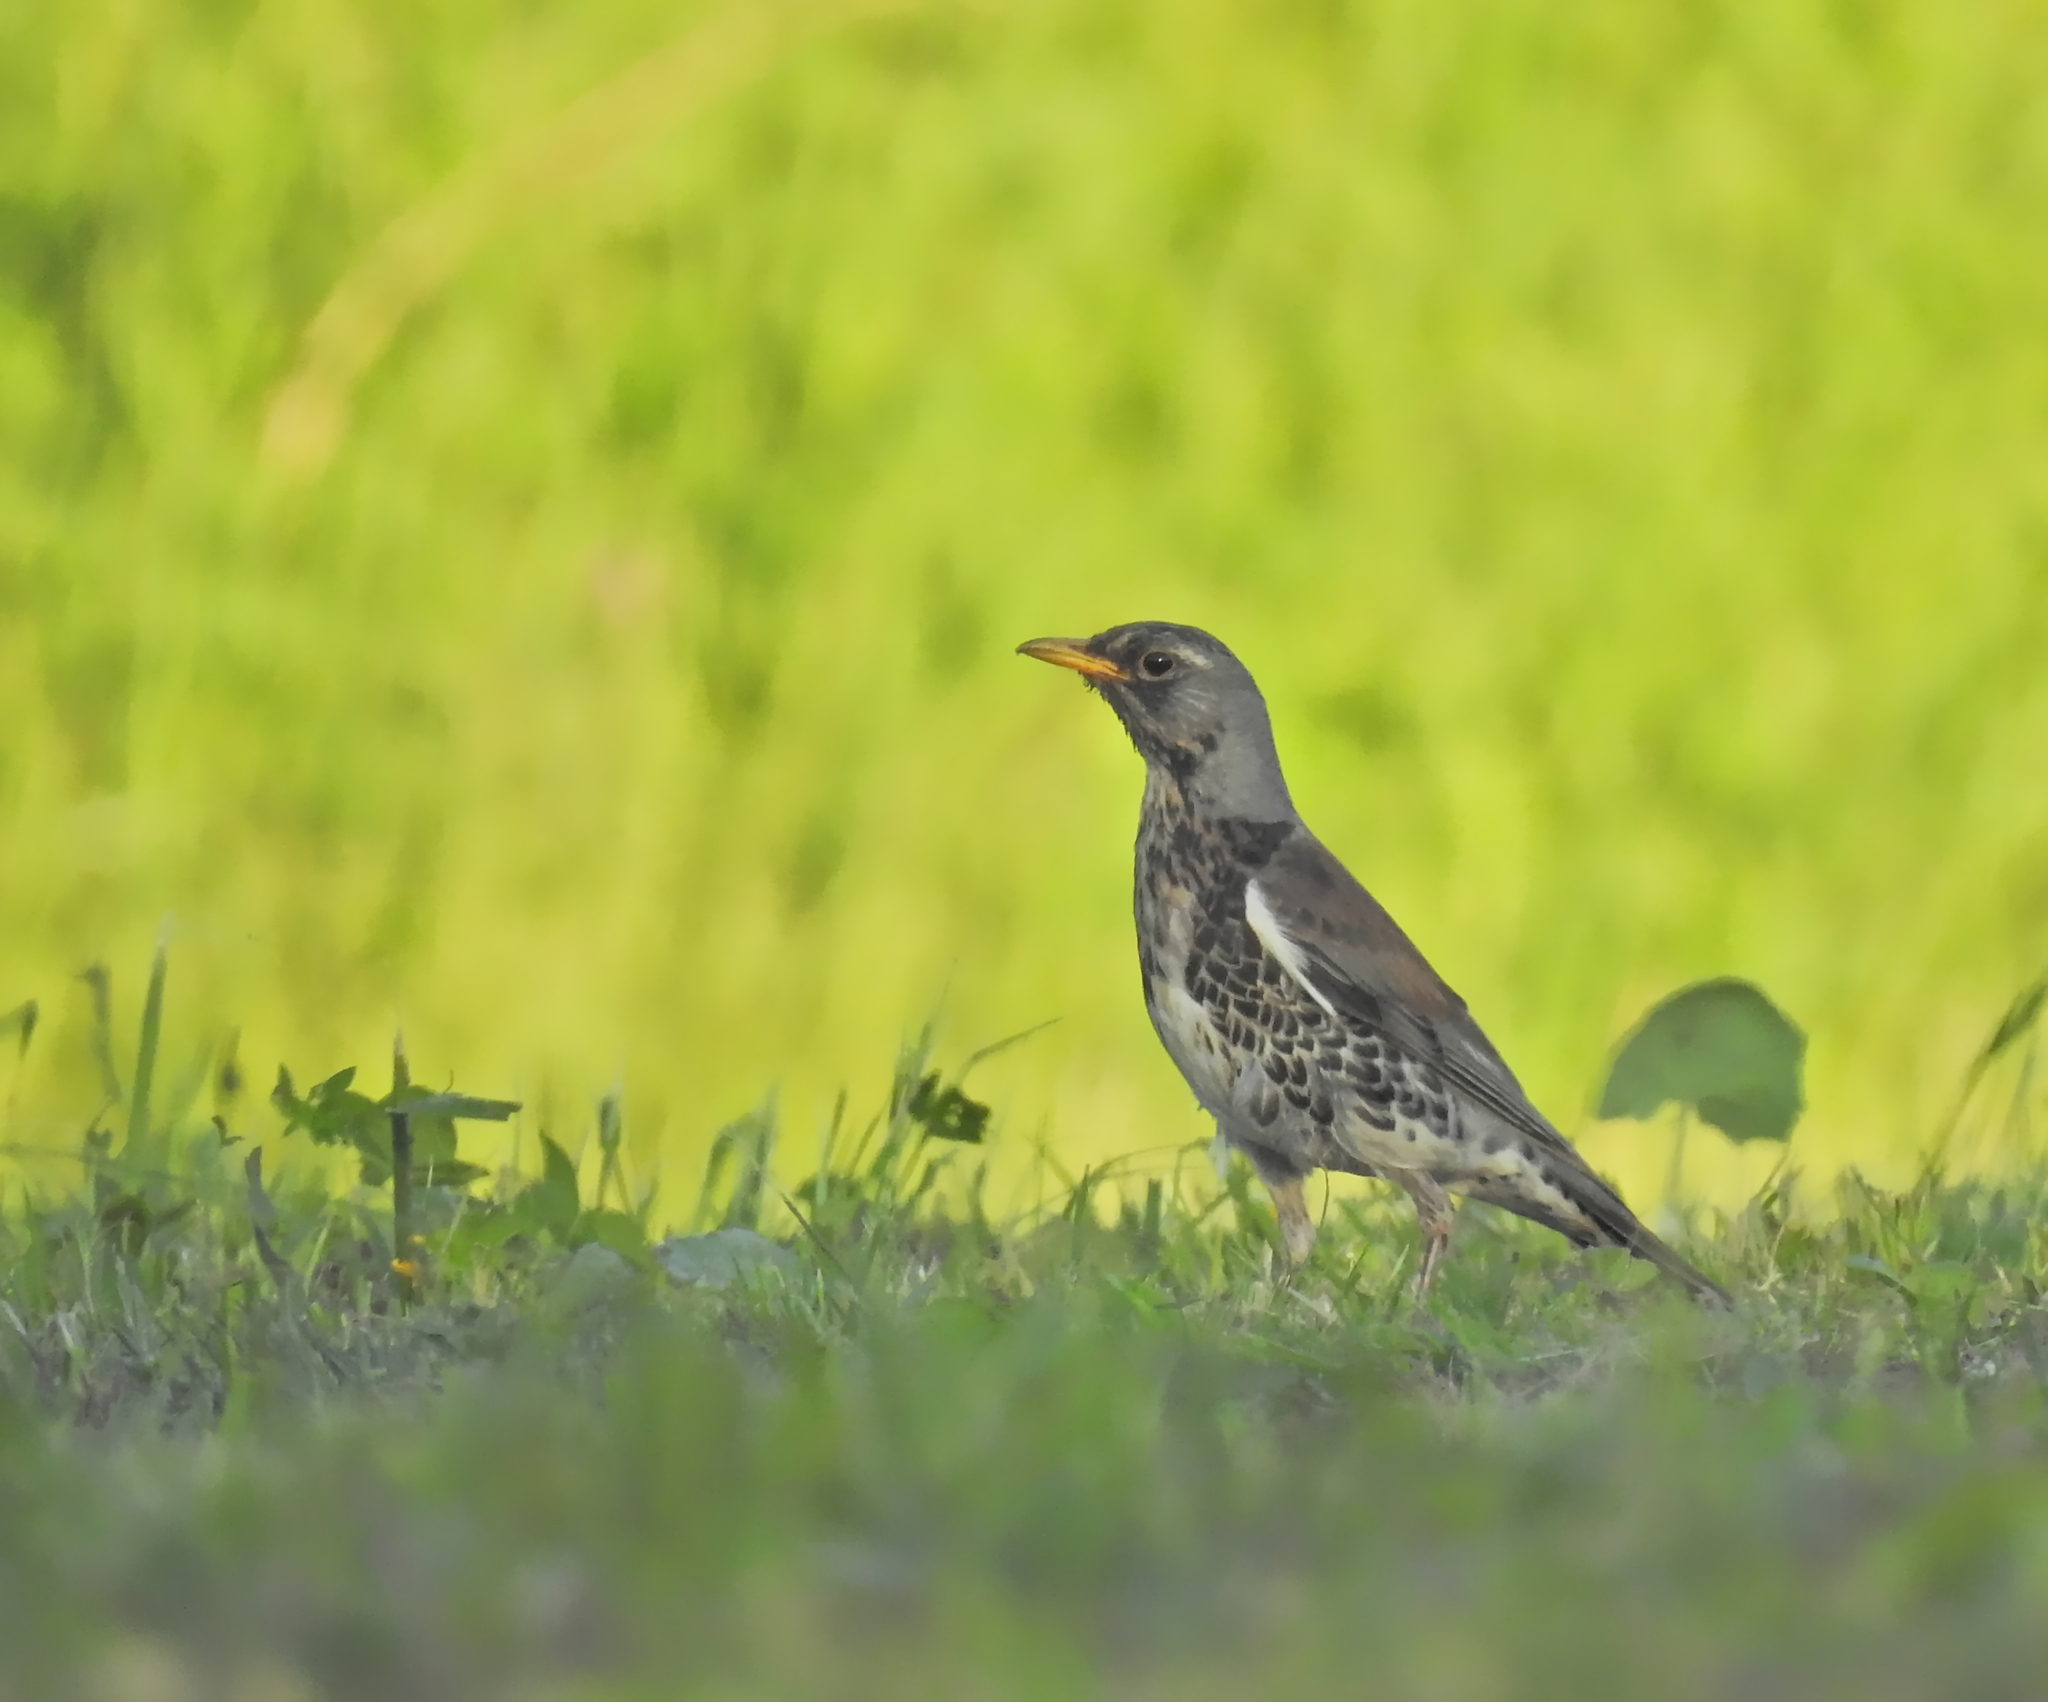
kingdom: Animalia
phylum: Chordata
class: Aves
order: Passeriformes
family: Turdidae
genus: Turdus
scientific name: Turdus pilaris
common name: Fieldfare
